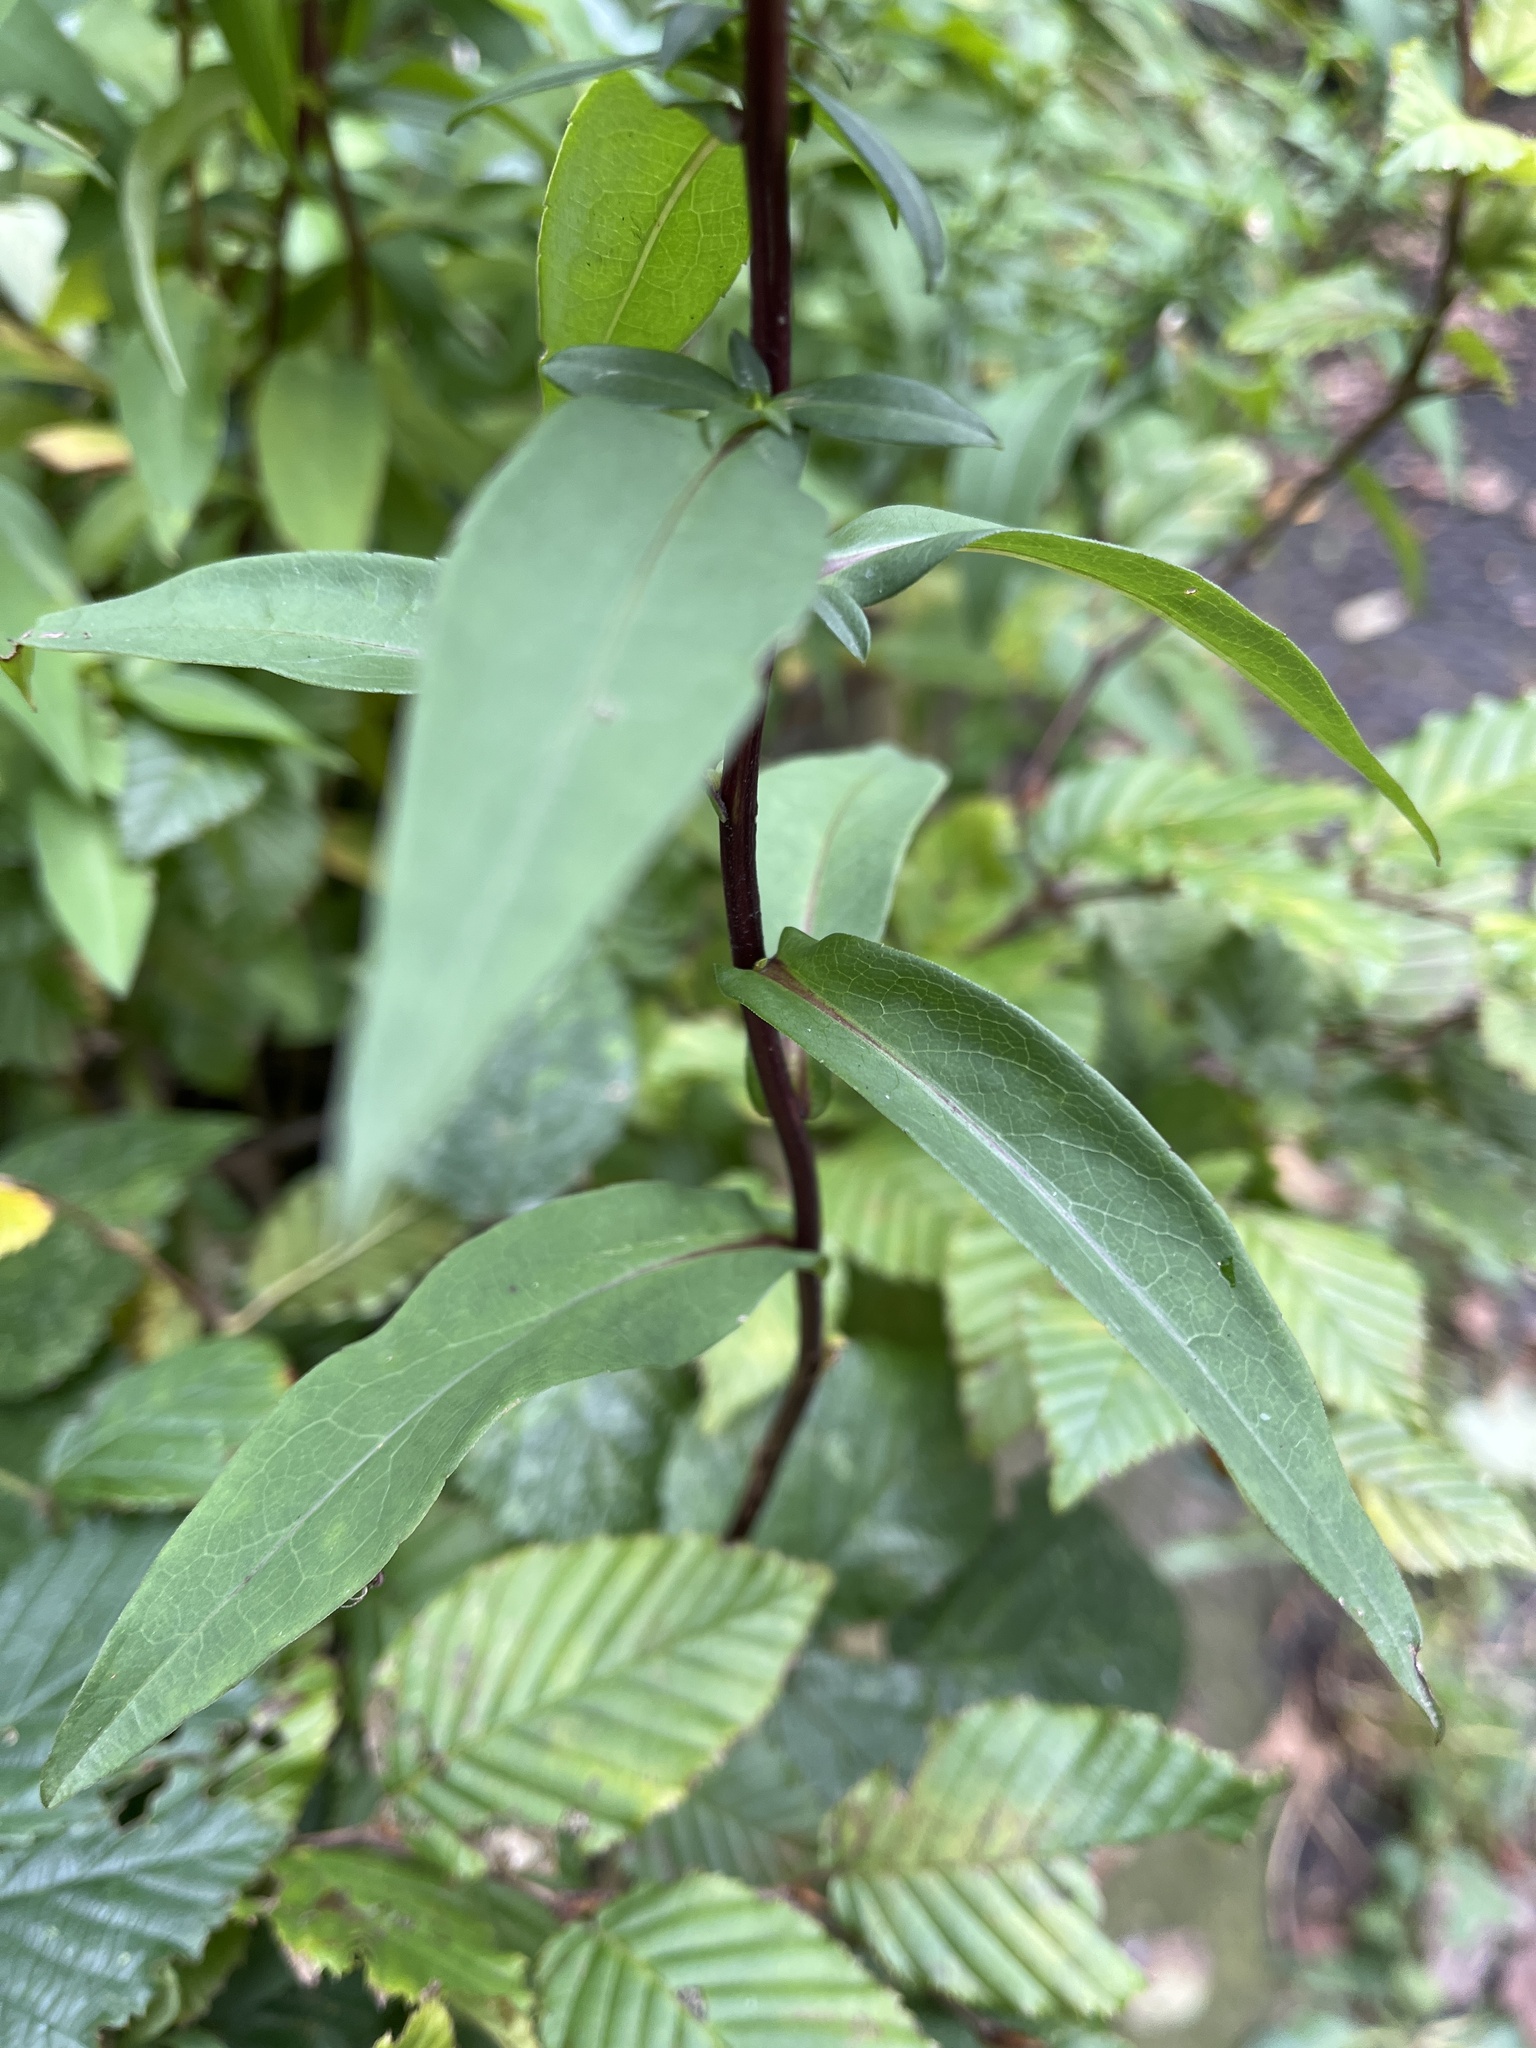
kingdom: Plantae
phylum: Tracheophyta
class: Magnoliopsida
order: Asterales
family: Asteraceae
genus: Symphyotrichum
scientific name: Symphyotrichum novi-belgii
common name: Michaelmas daisy
